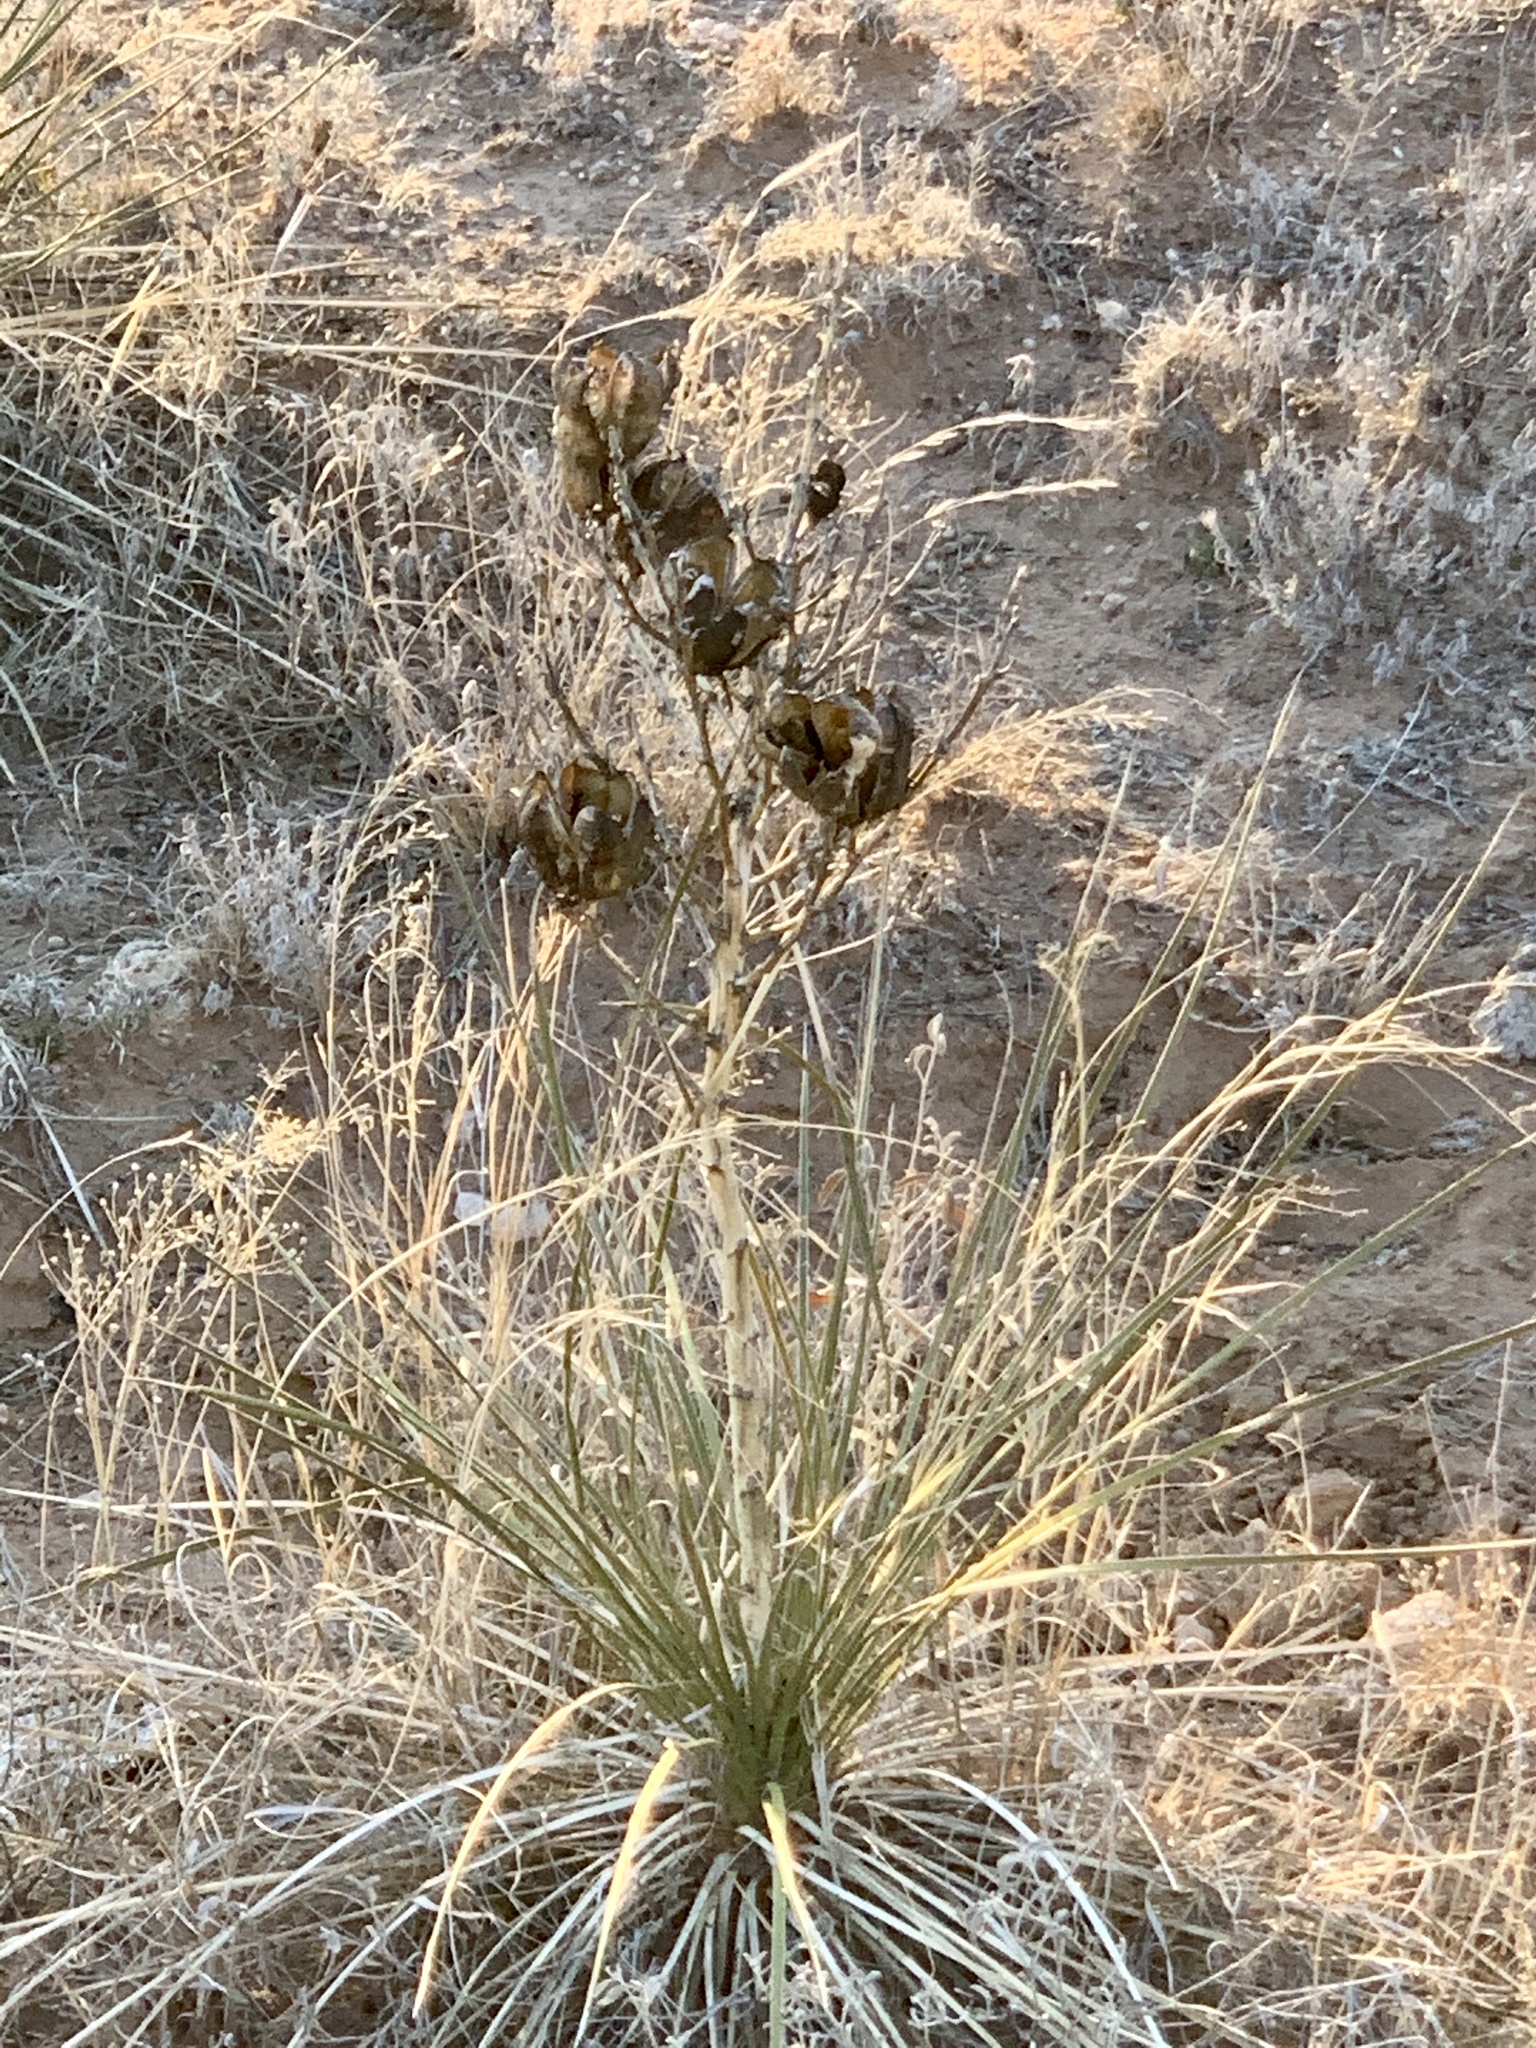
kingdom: Plantae
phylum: Tracheophyta
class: Liliopsida
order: Asparagales
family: Asparagaceae
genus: Yucca
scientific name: Yucca campestris
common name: Plains yucca
